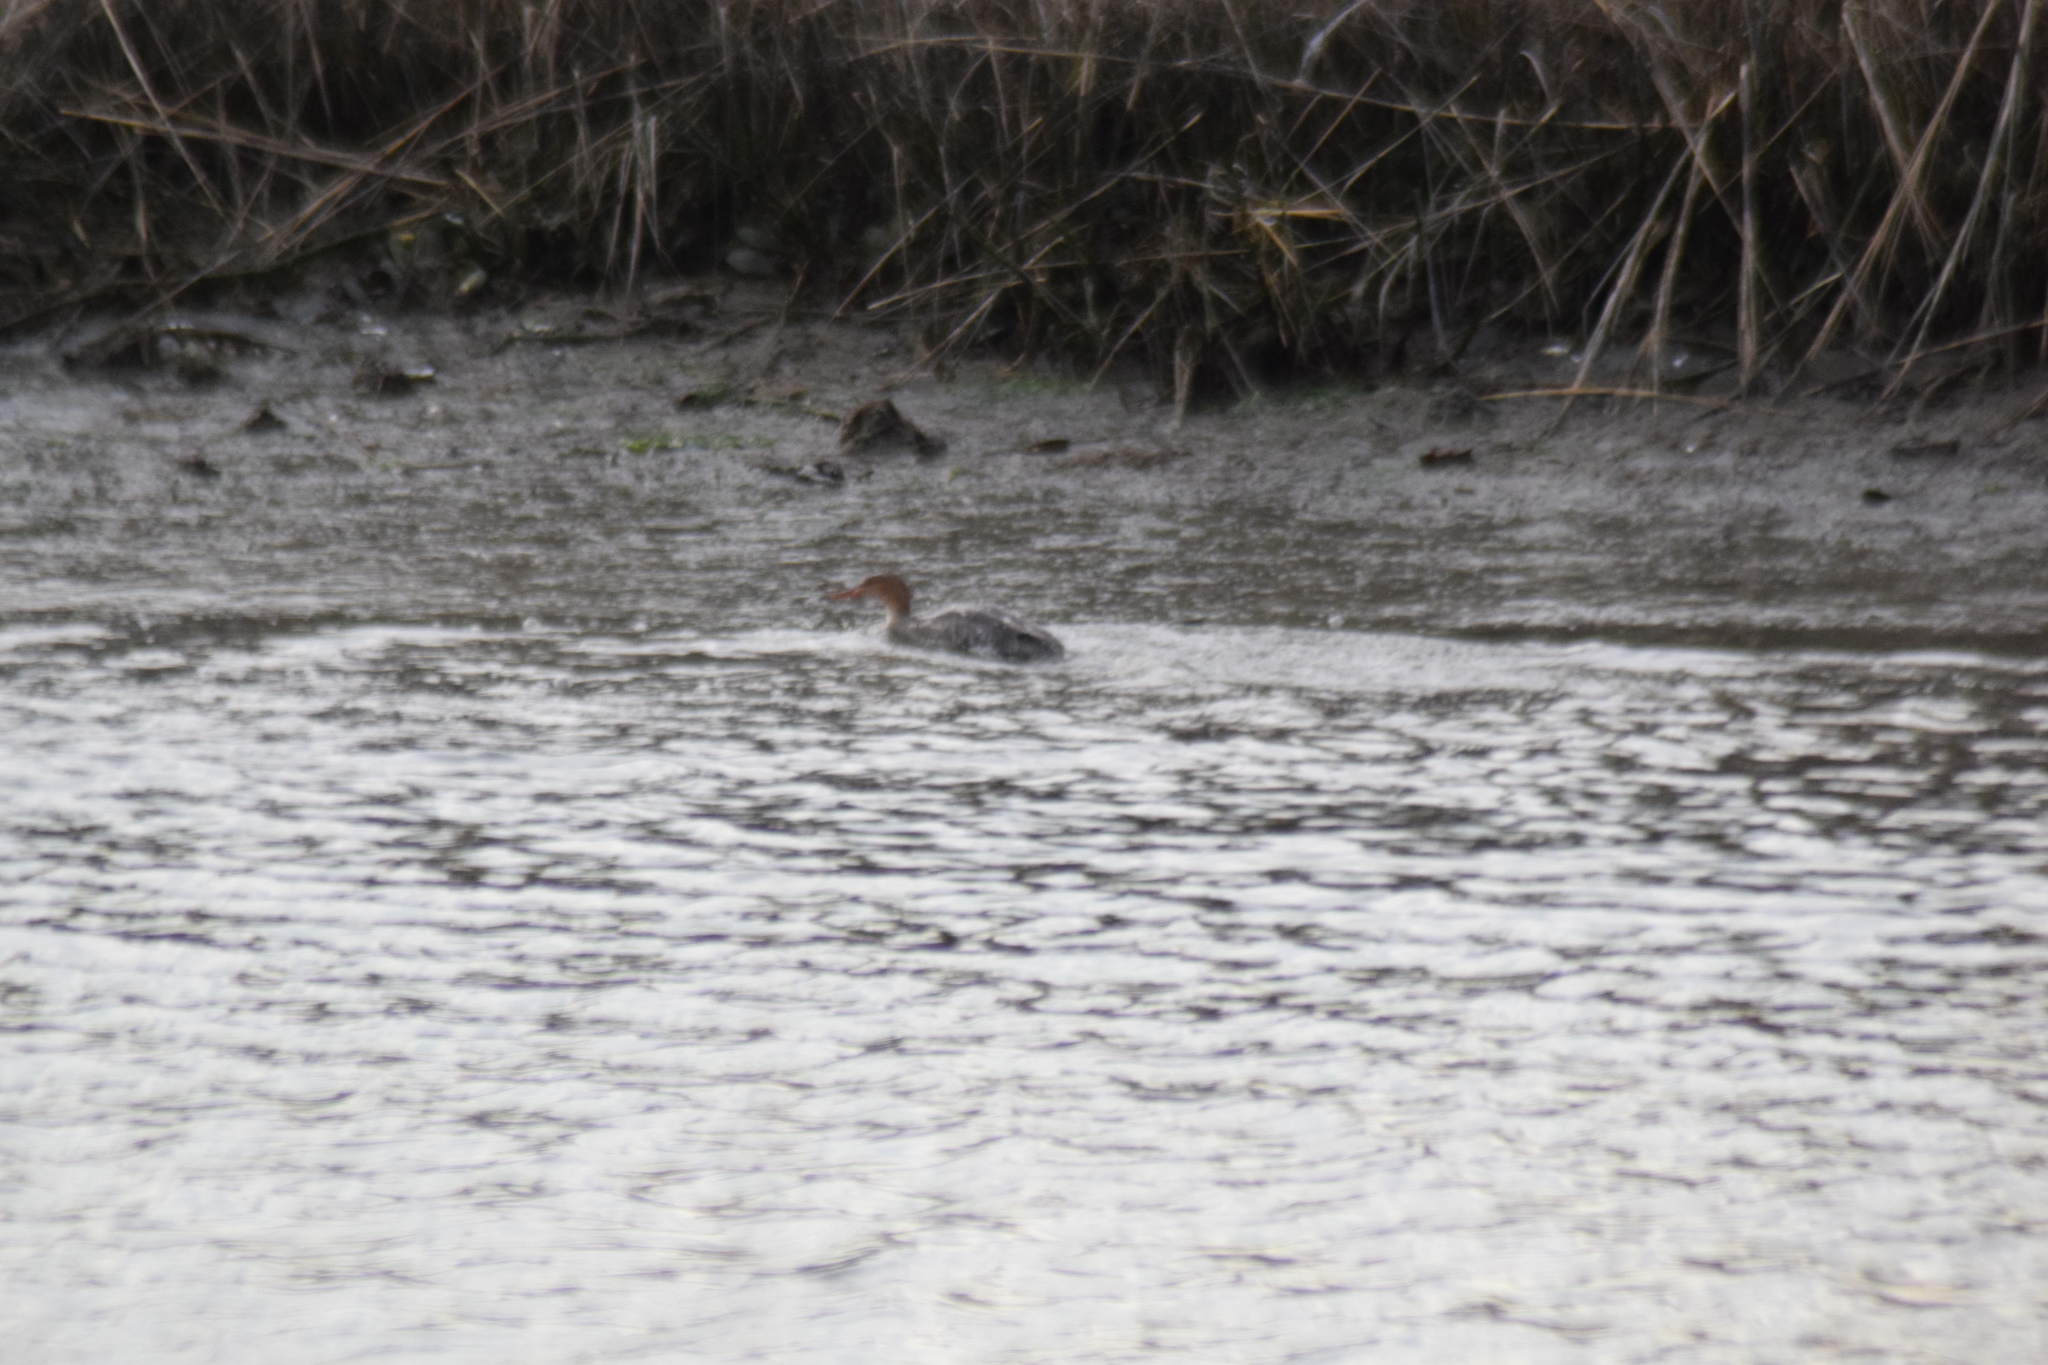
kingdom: Animalia
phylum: Chordata
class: Aves
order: Anseriformes
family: Anatidae
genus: Mergus
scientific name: Mergus serrator
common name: Red-breasted merganser
